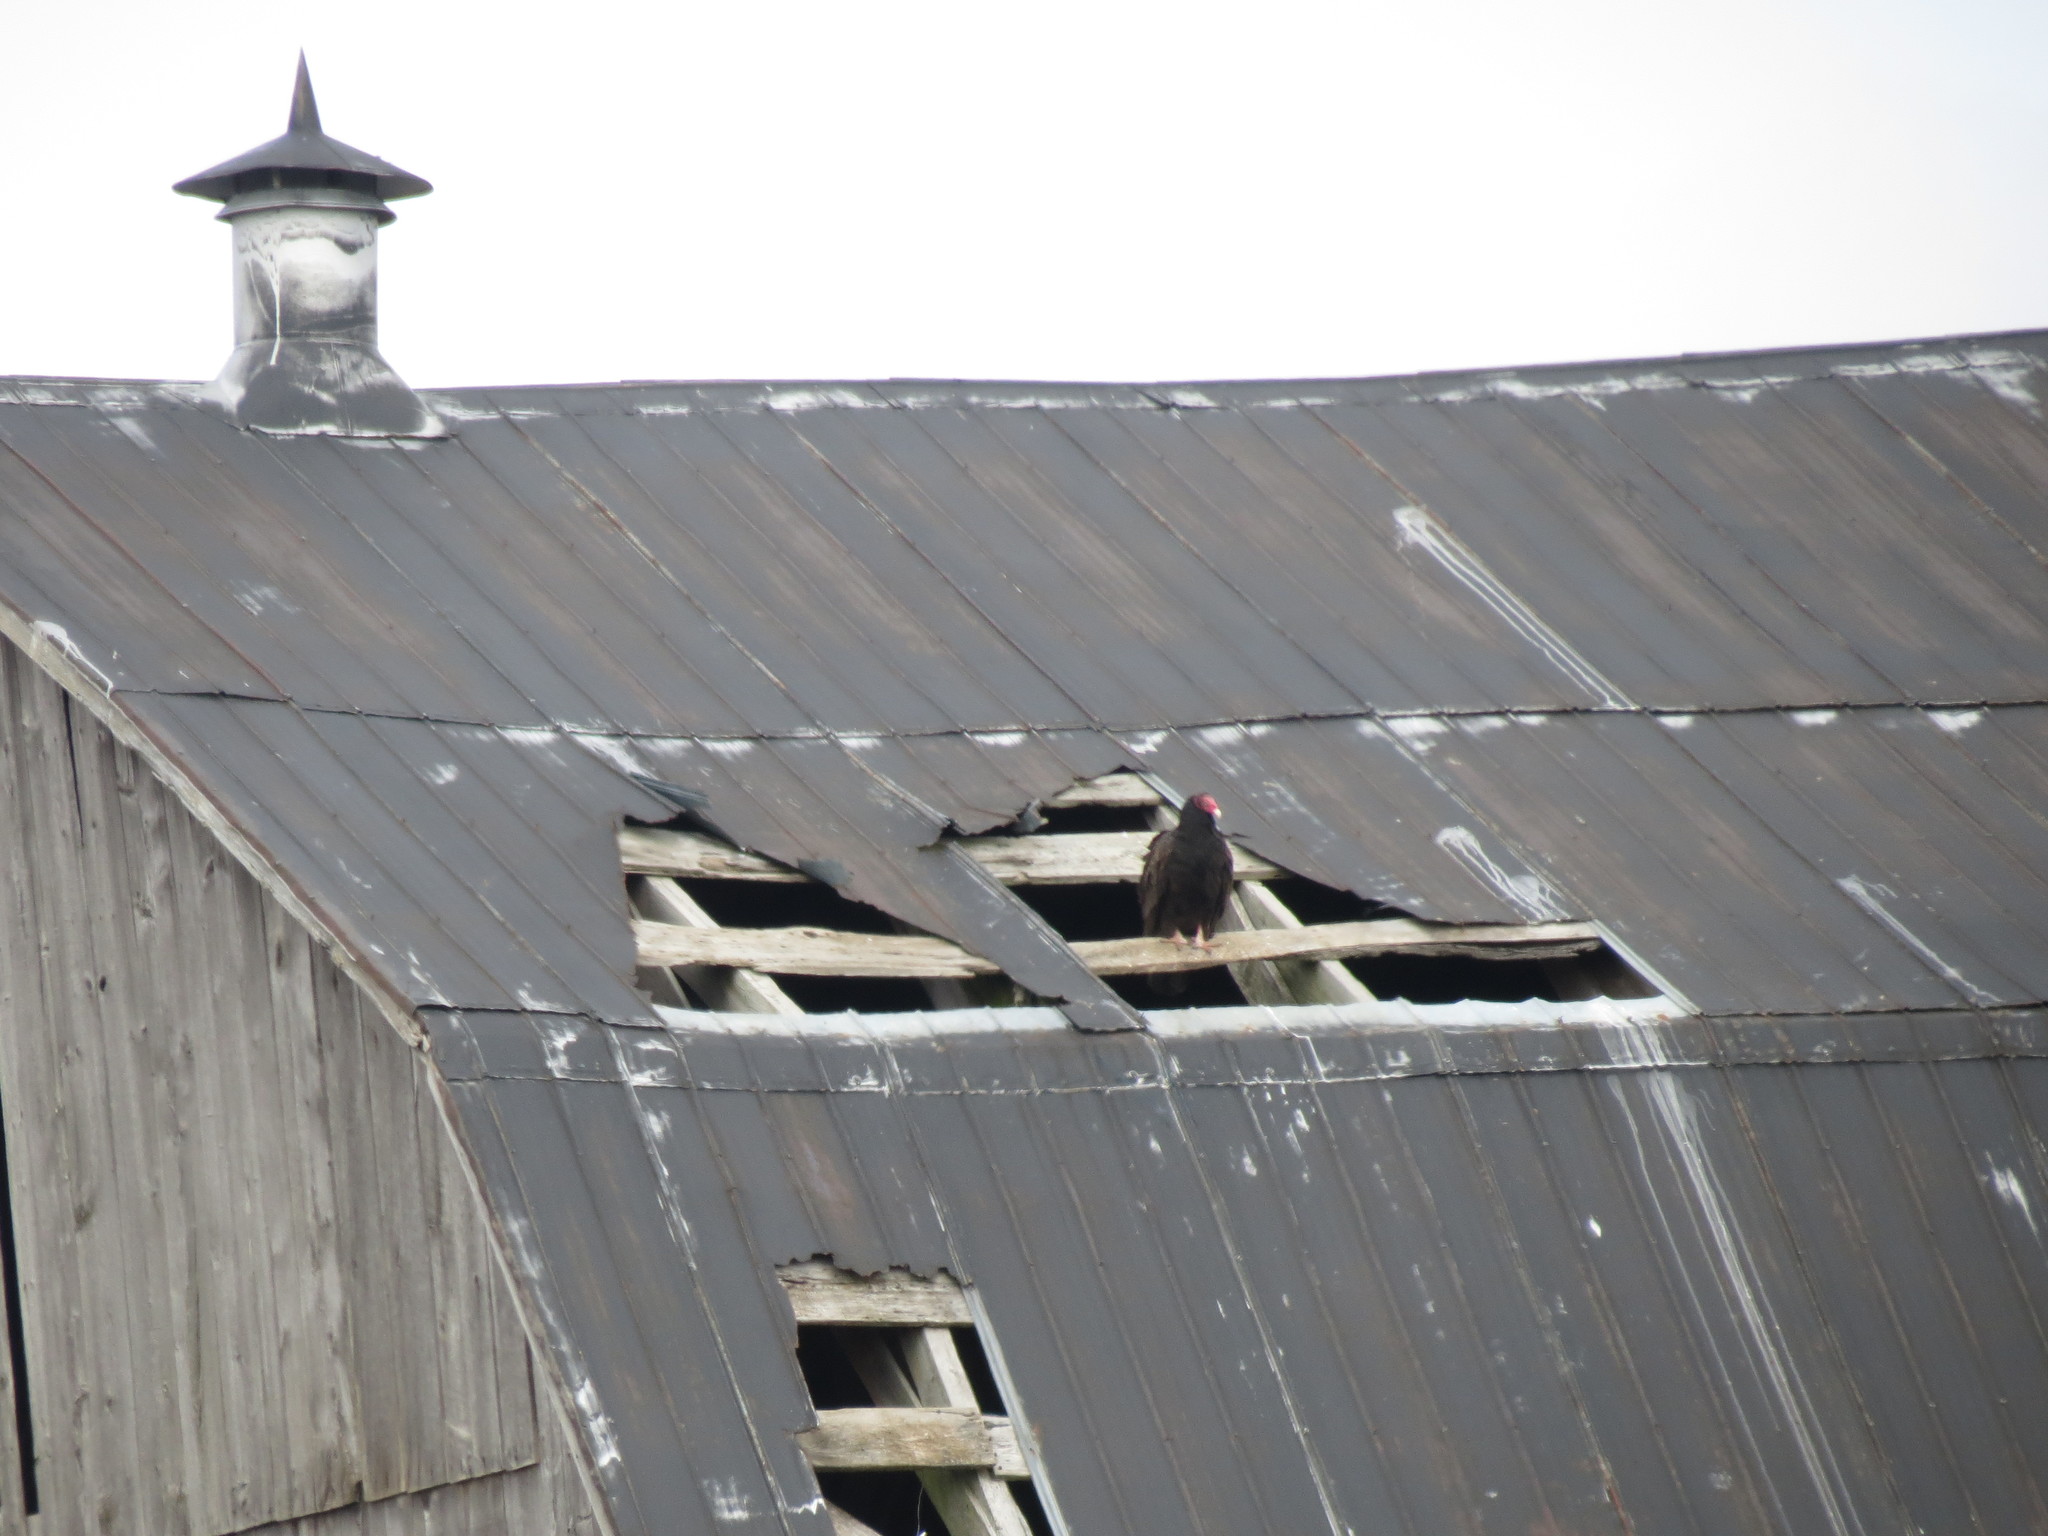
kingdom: Animalia
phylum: Chordata
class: Aves
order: Accipitriformes
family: Cathartidae
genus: Cathartes
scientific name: Cathartes aura
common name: Turkey vulture
